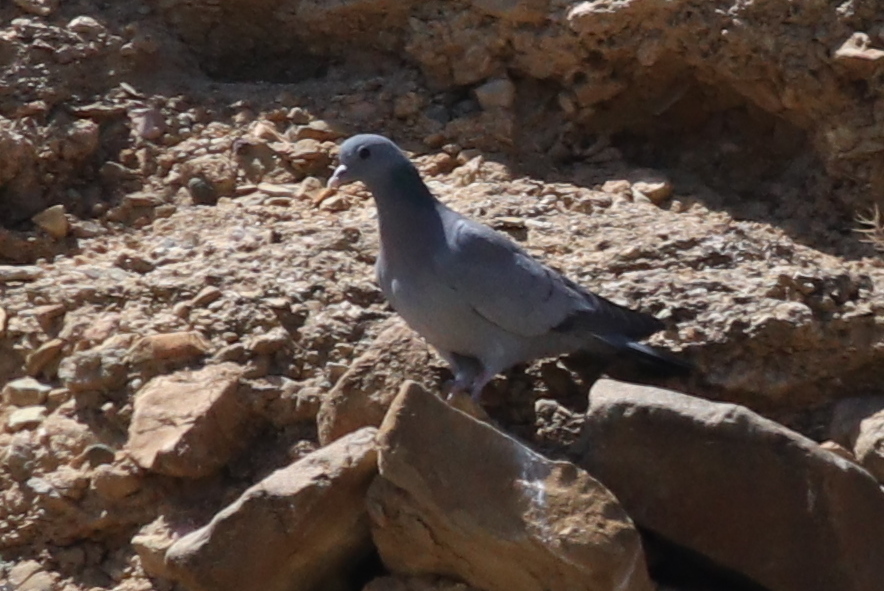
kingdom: Animalia
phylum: Chordata
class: Aves
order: Columbiformes
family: Columbidae
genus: Columba
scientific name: Columba oenas
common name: Stock dove
